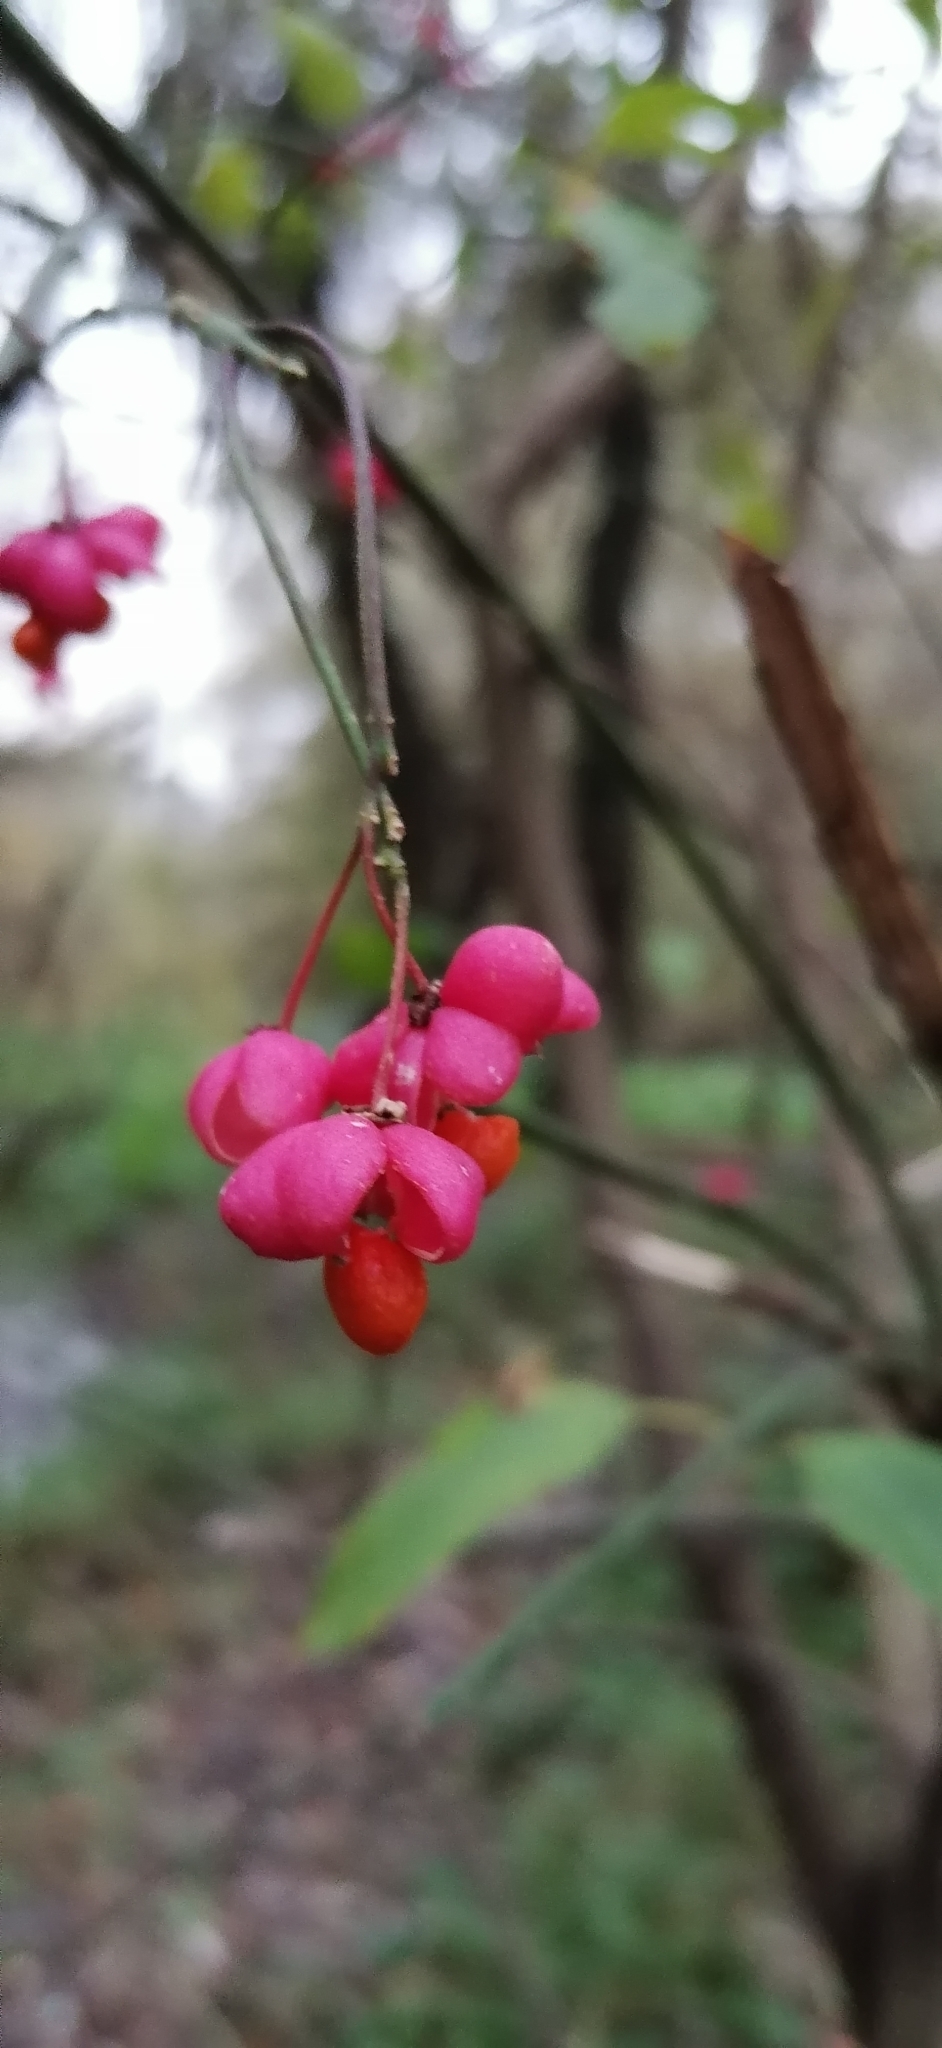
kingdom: Plantae
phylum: Tracheophyta
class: Magnoliopsida
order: Celastrales
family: Celastraceae
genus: Euonymus
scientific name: Euonymus europaeus
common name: Spindle
